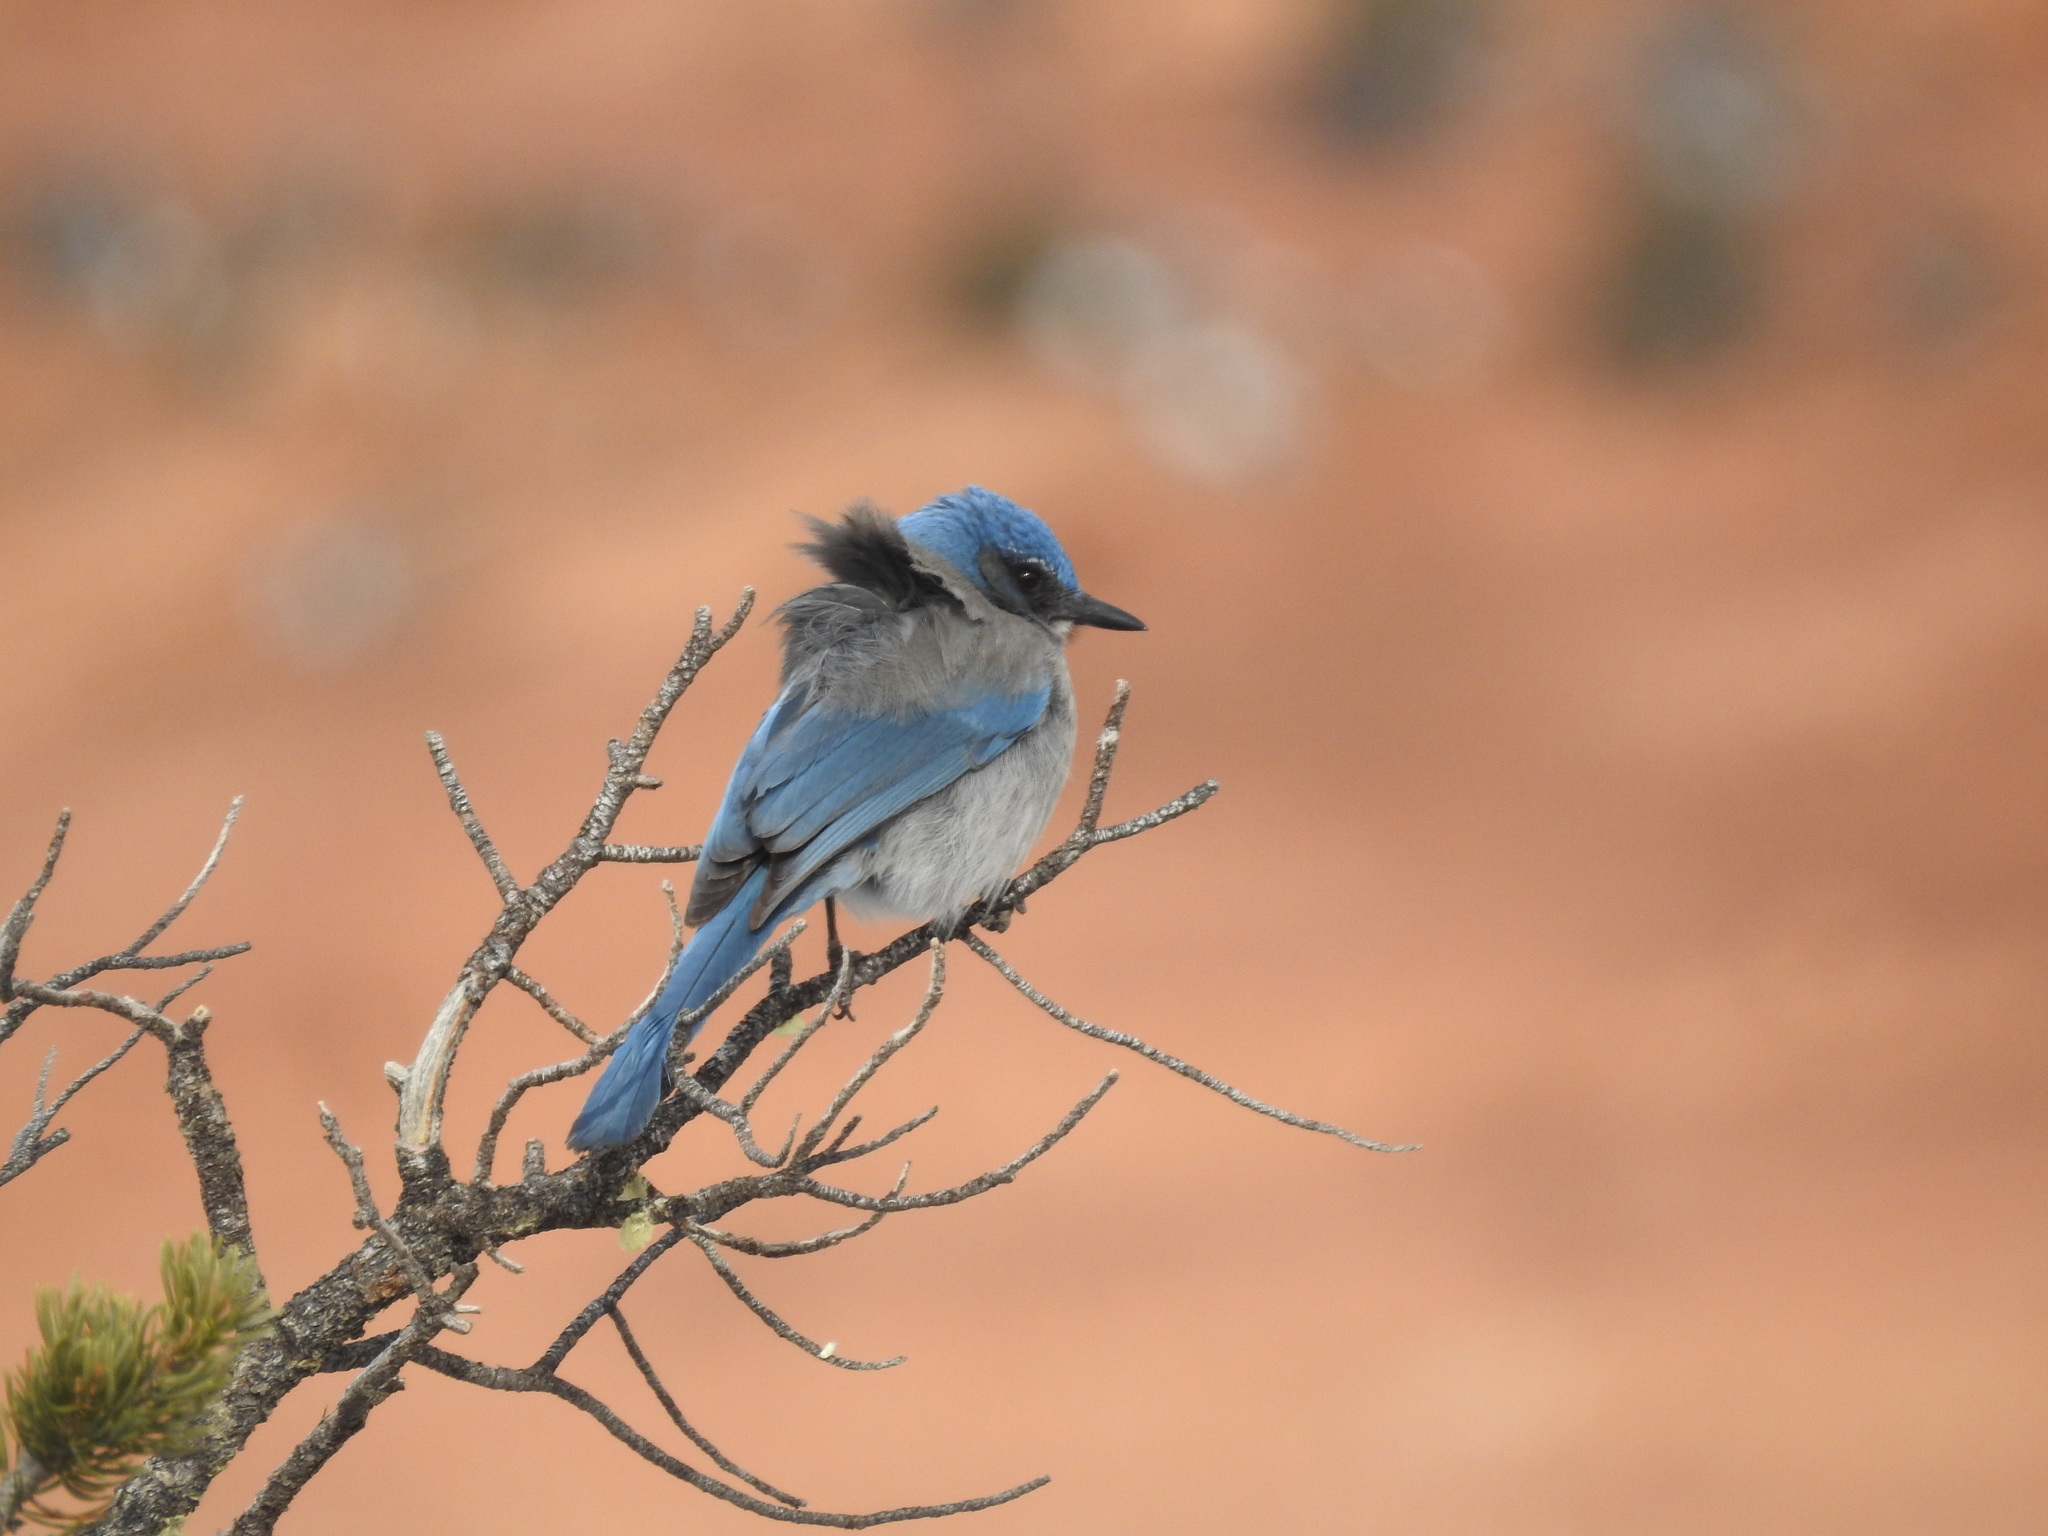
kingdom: Animalia
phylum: Chordata
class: Aves
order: Passeriformes
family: Corvidae
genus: Aphelocoma
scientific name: Aphelocoma woodhouseii
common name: Woodhouse's scrub-jay
